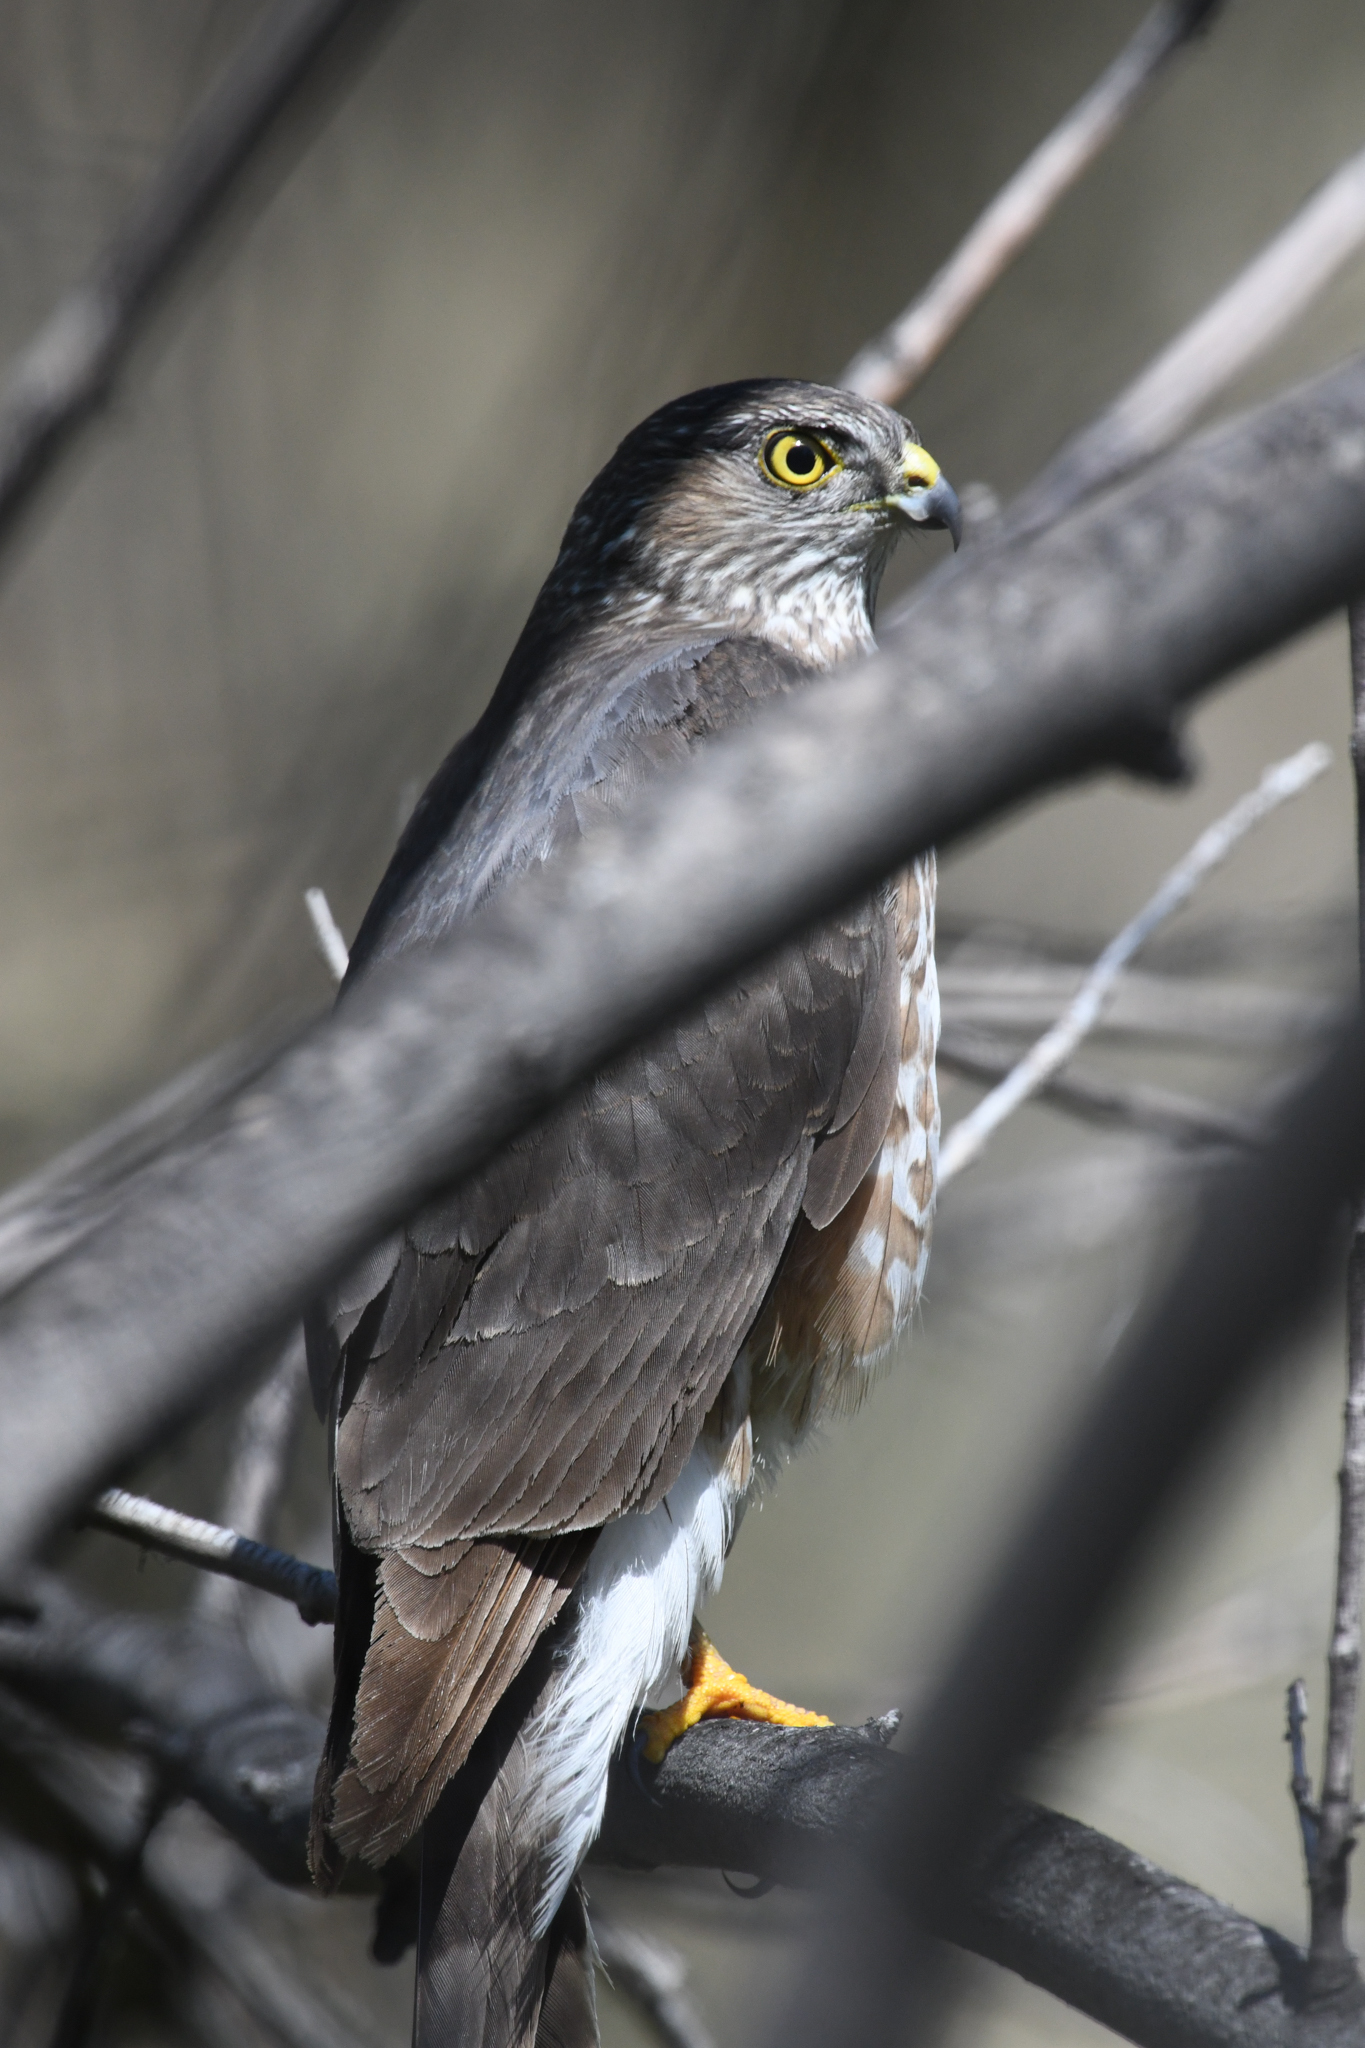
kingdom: Animalia
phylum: Chordata
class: Aves
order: Accipitriformes
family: Accipitridae
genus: Accipiter
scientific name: Accipiter cooperii
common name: Cooper's hawk
